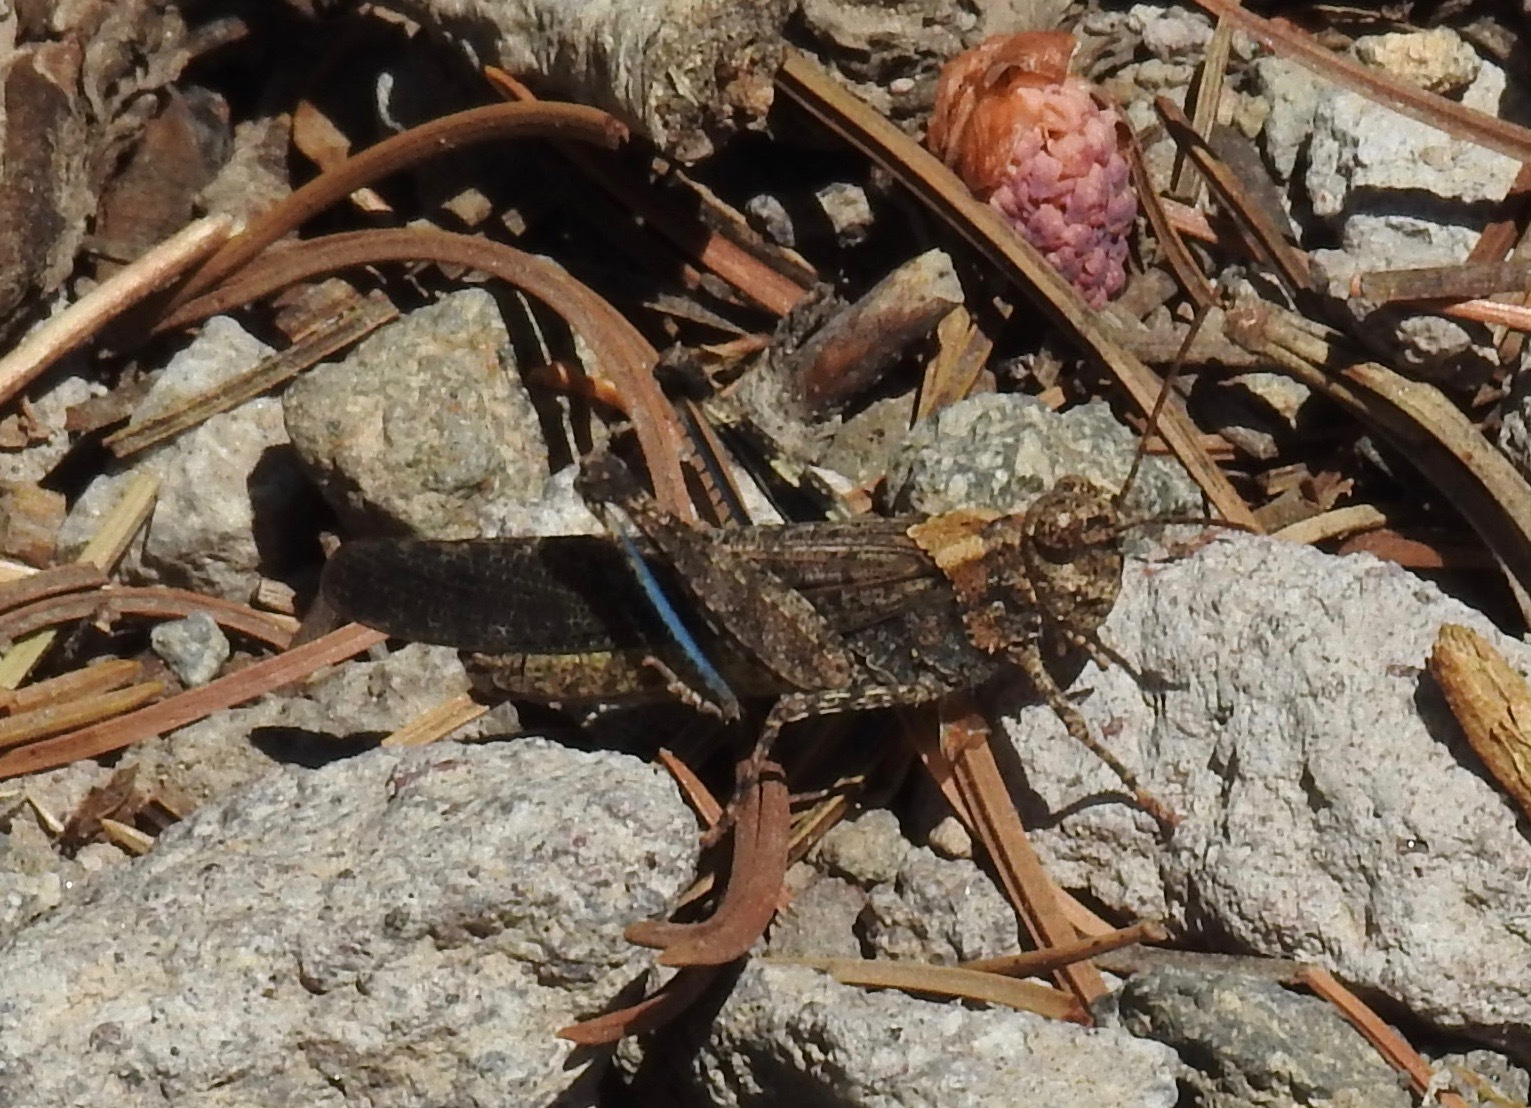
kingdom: Animalia
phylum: Arthropoda
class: Insecta
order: Orthoptera
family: Acrididae
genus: Trimerotropis
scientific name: Trimerotropis verruculata
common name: Crackling forest grasshopper
